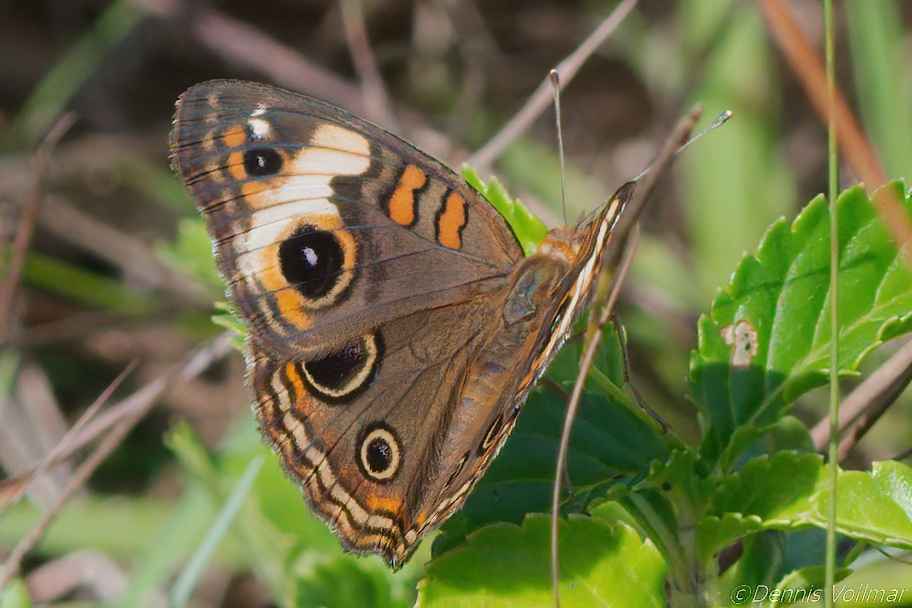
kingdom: Animalia
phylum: Arthropoda
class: Insecta
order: Lepidoptera
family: Nymphalidae
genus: Junonia
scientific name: Junonia lavinia
